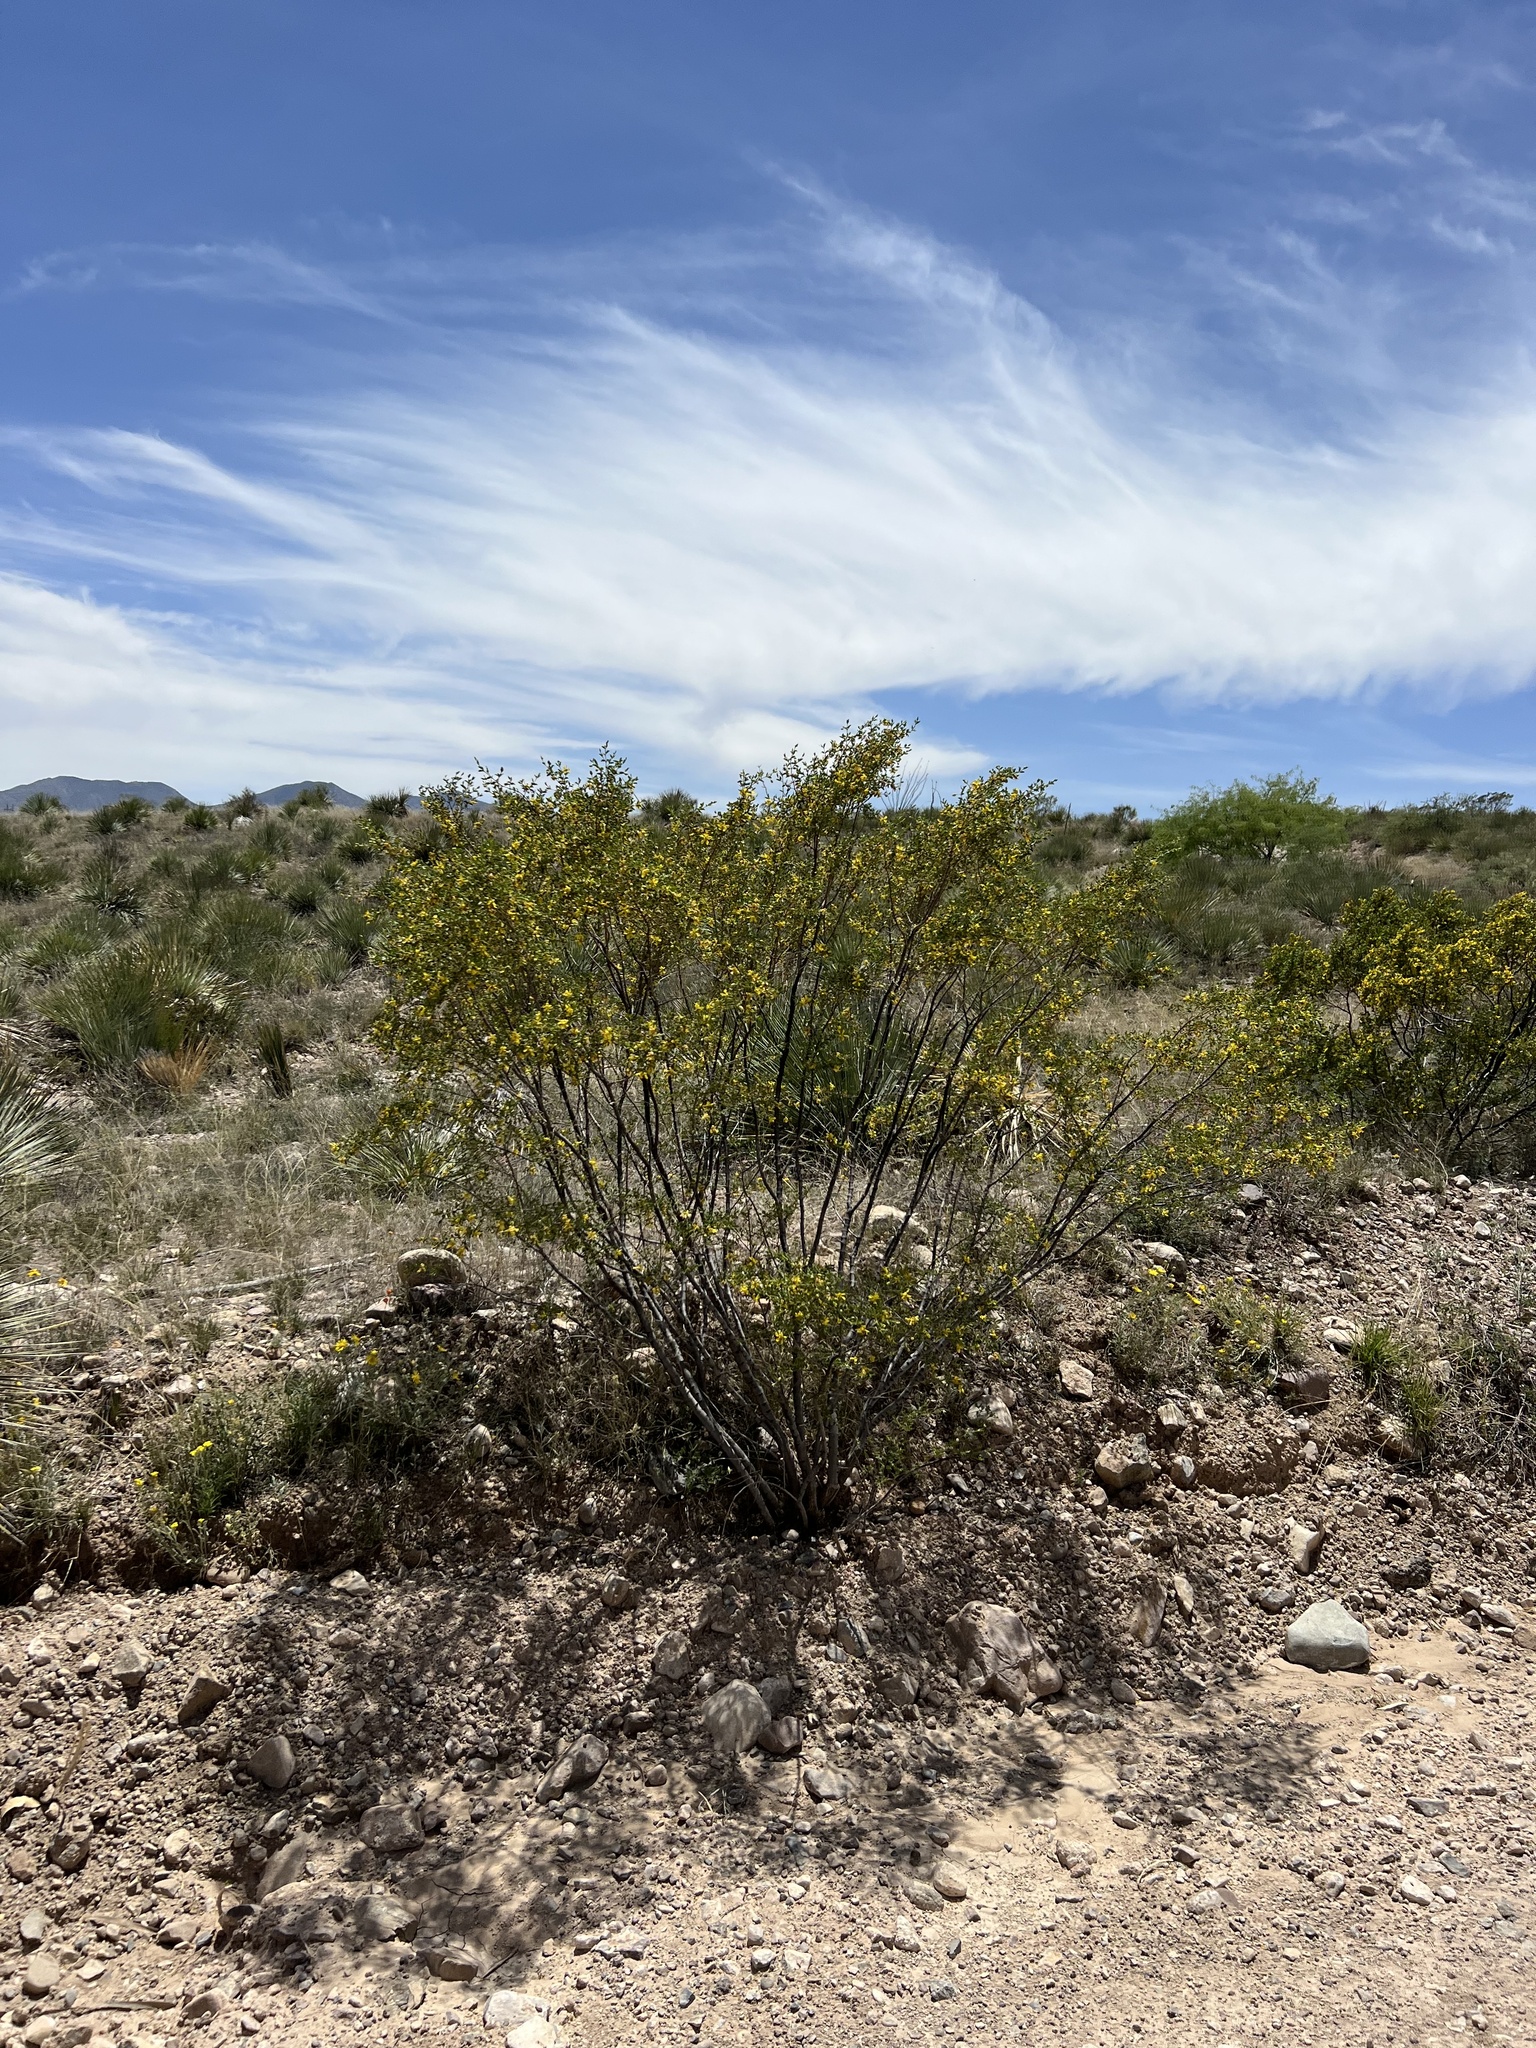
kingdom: Plantae
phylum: Tracheophyta
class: Magnoliopsida
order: Zygophyllales
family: Zygophyllaceae
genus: Larrea
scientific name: Larrea tridentata
